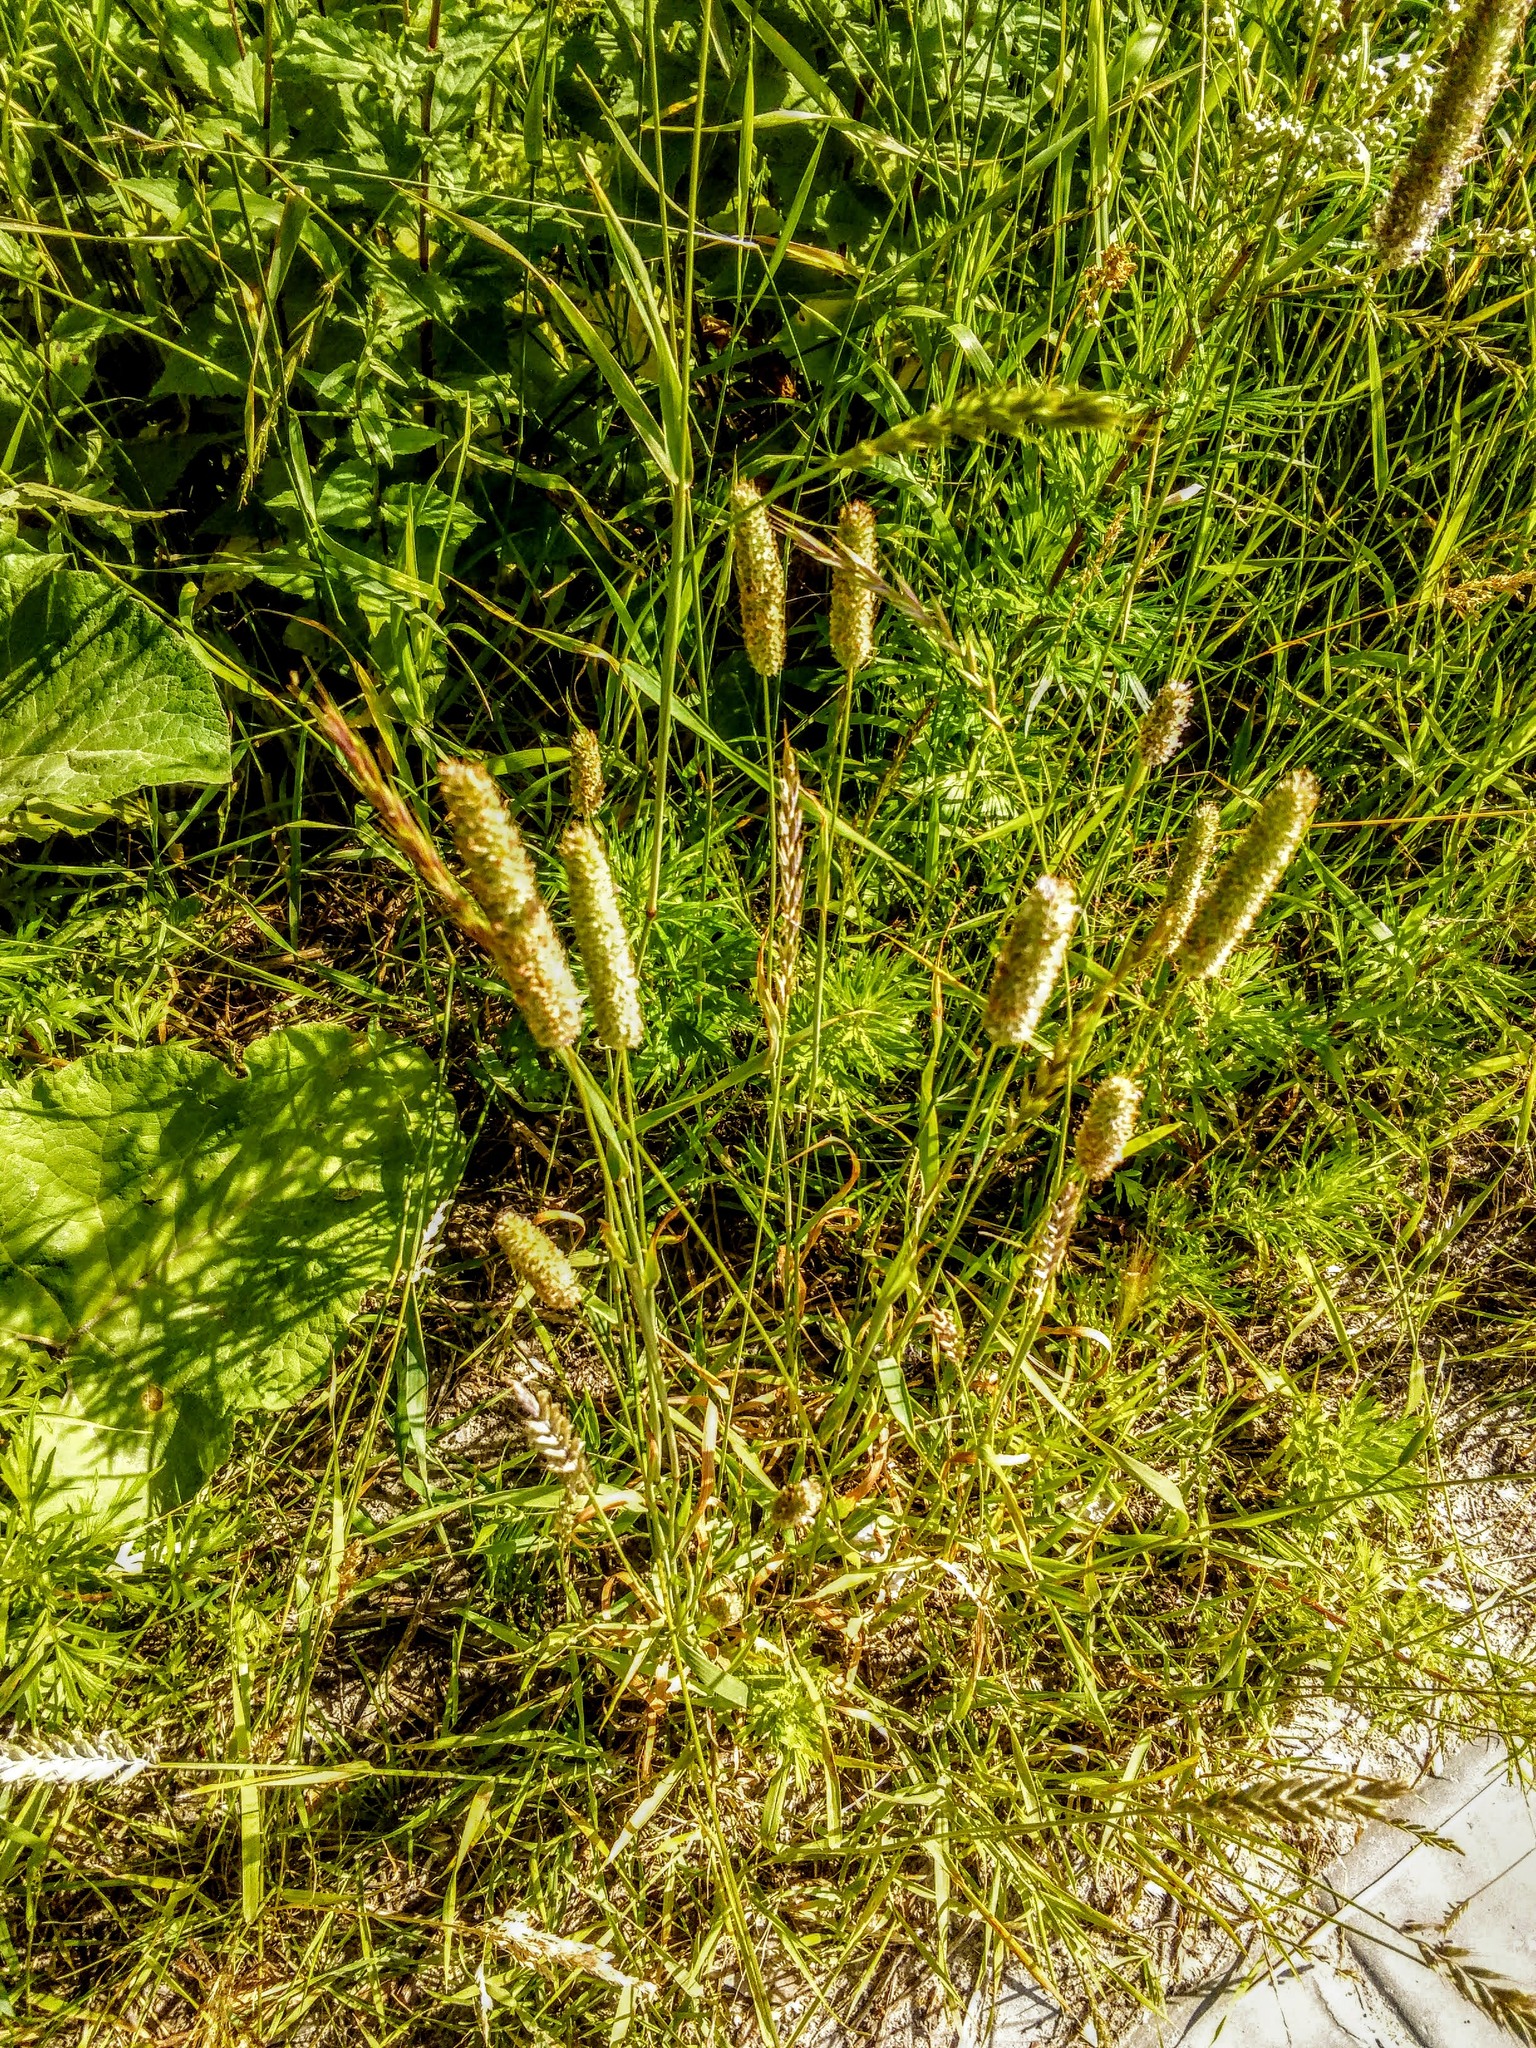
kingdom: Plantae
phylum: Tracheophyta
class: Liliopsida
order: Poales
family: Poaceae
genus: Phleum
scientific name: Phleum pratense
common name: Timothy grass
